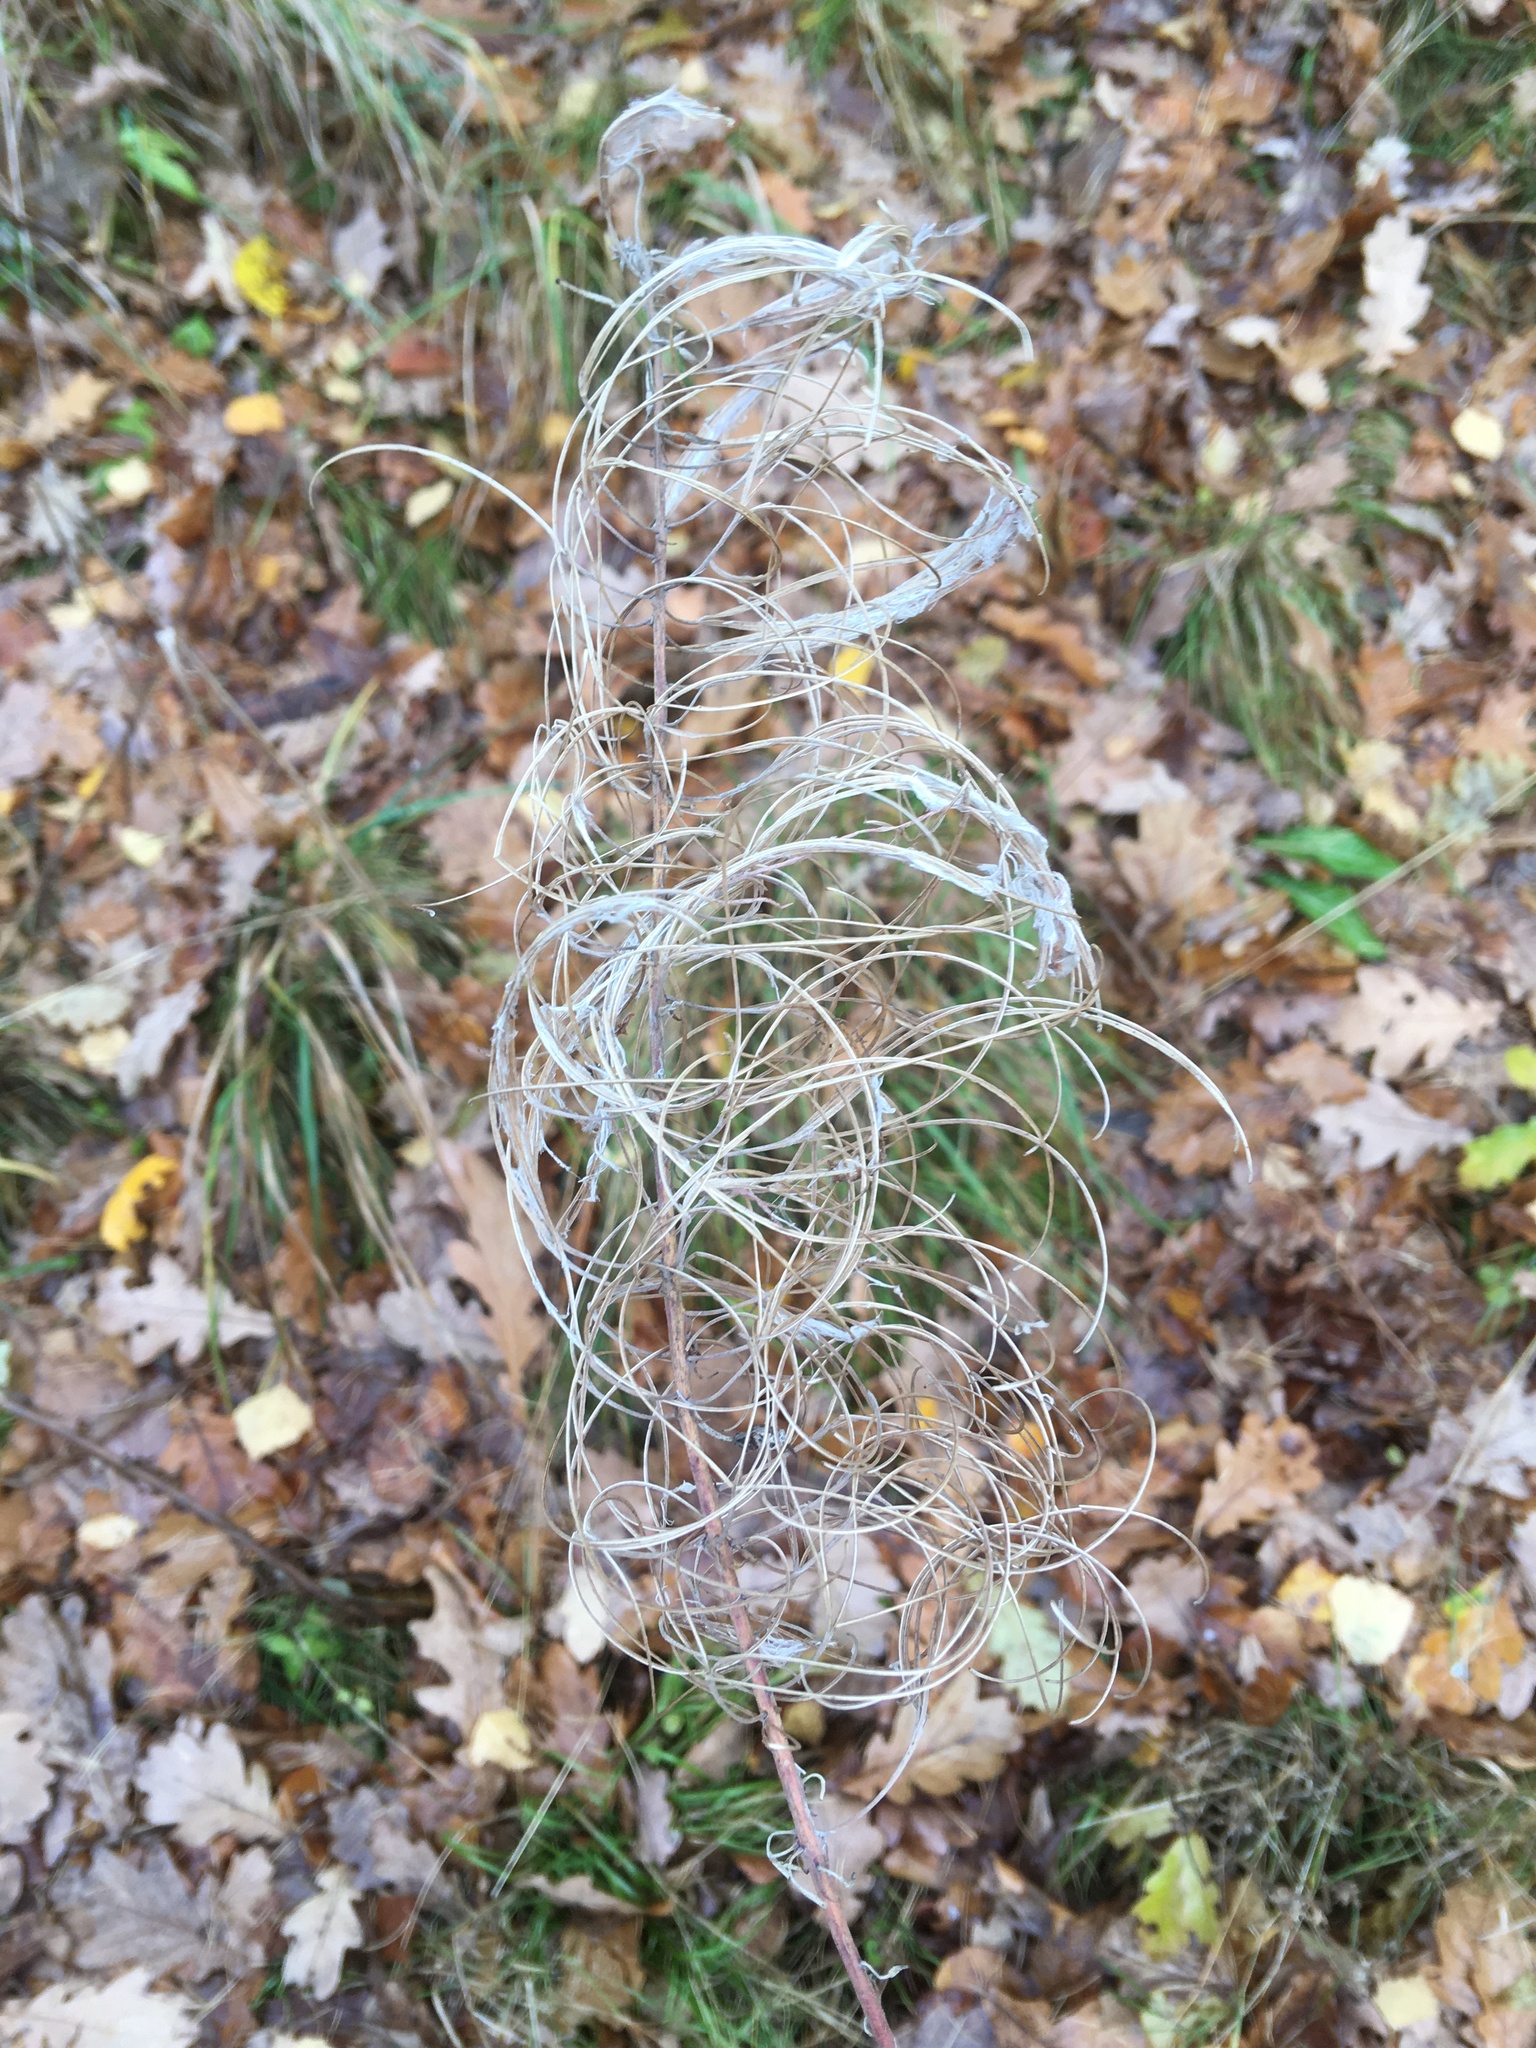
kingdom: Plantae
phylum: Tracheophyta
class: Magnoliopsida
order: Myrtales
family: Onagraceae
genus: Chamaenerion
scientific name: Chamaenerion angustifolium
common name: Fireweed
